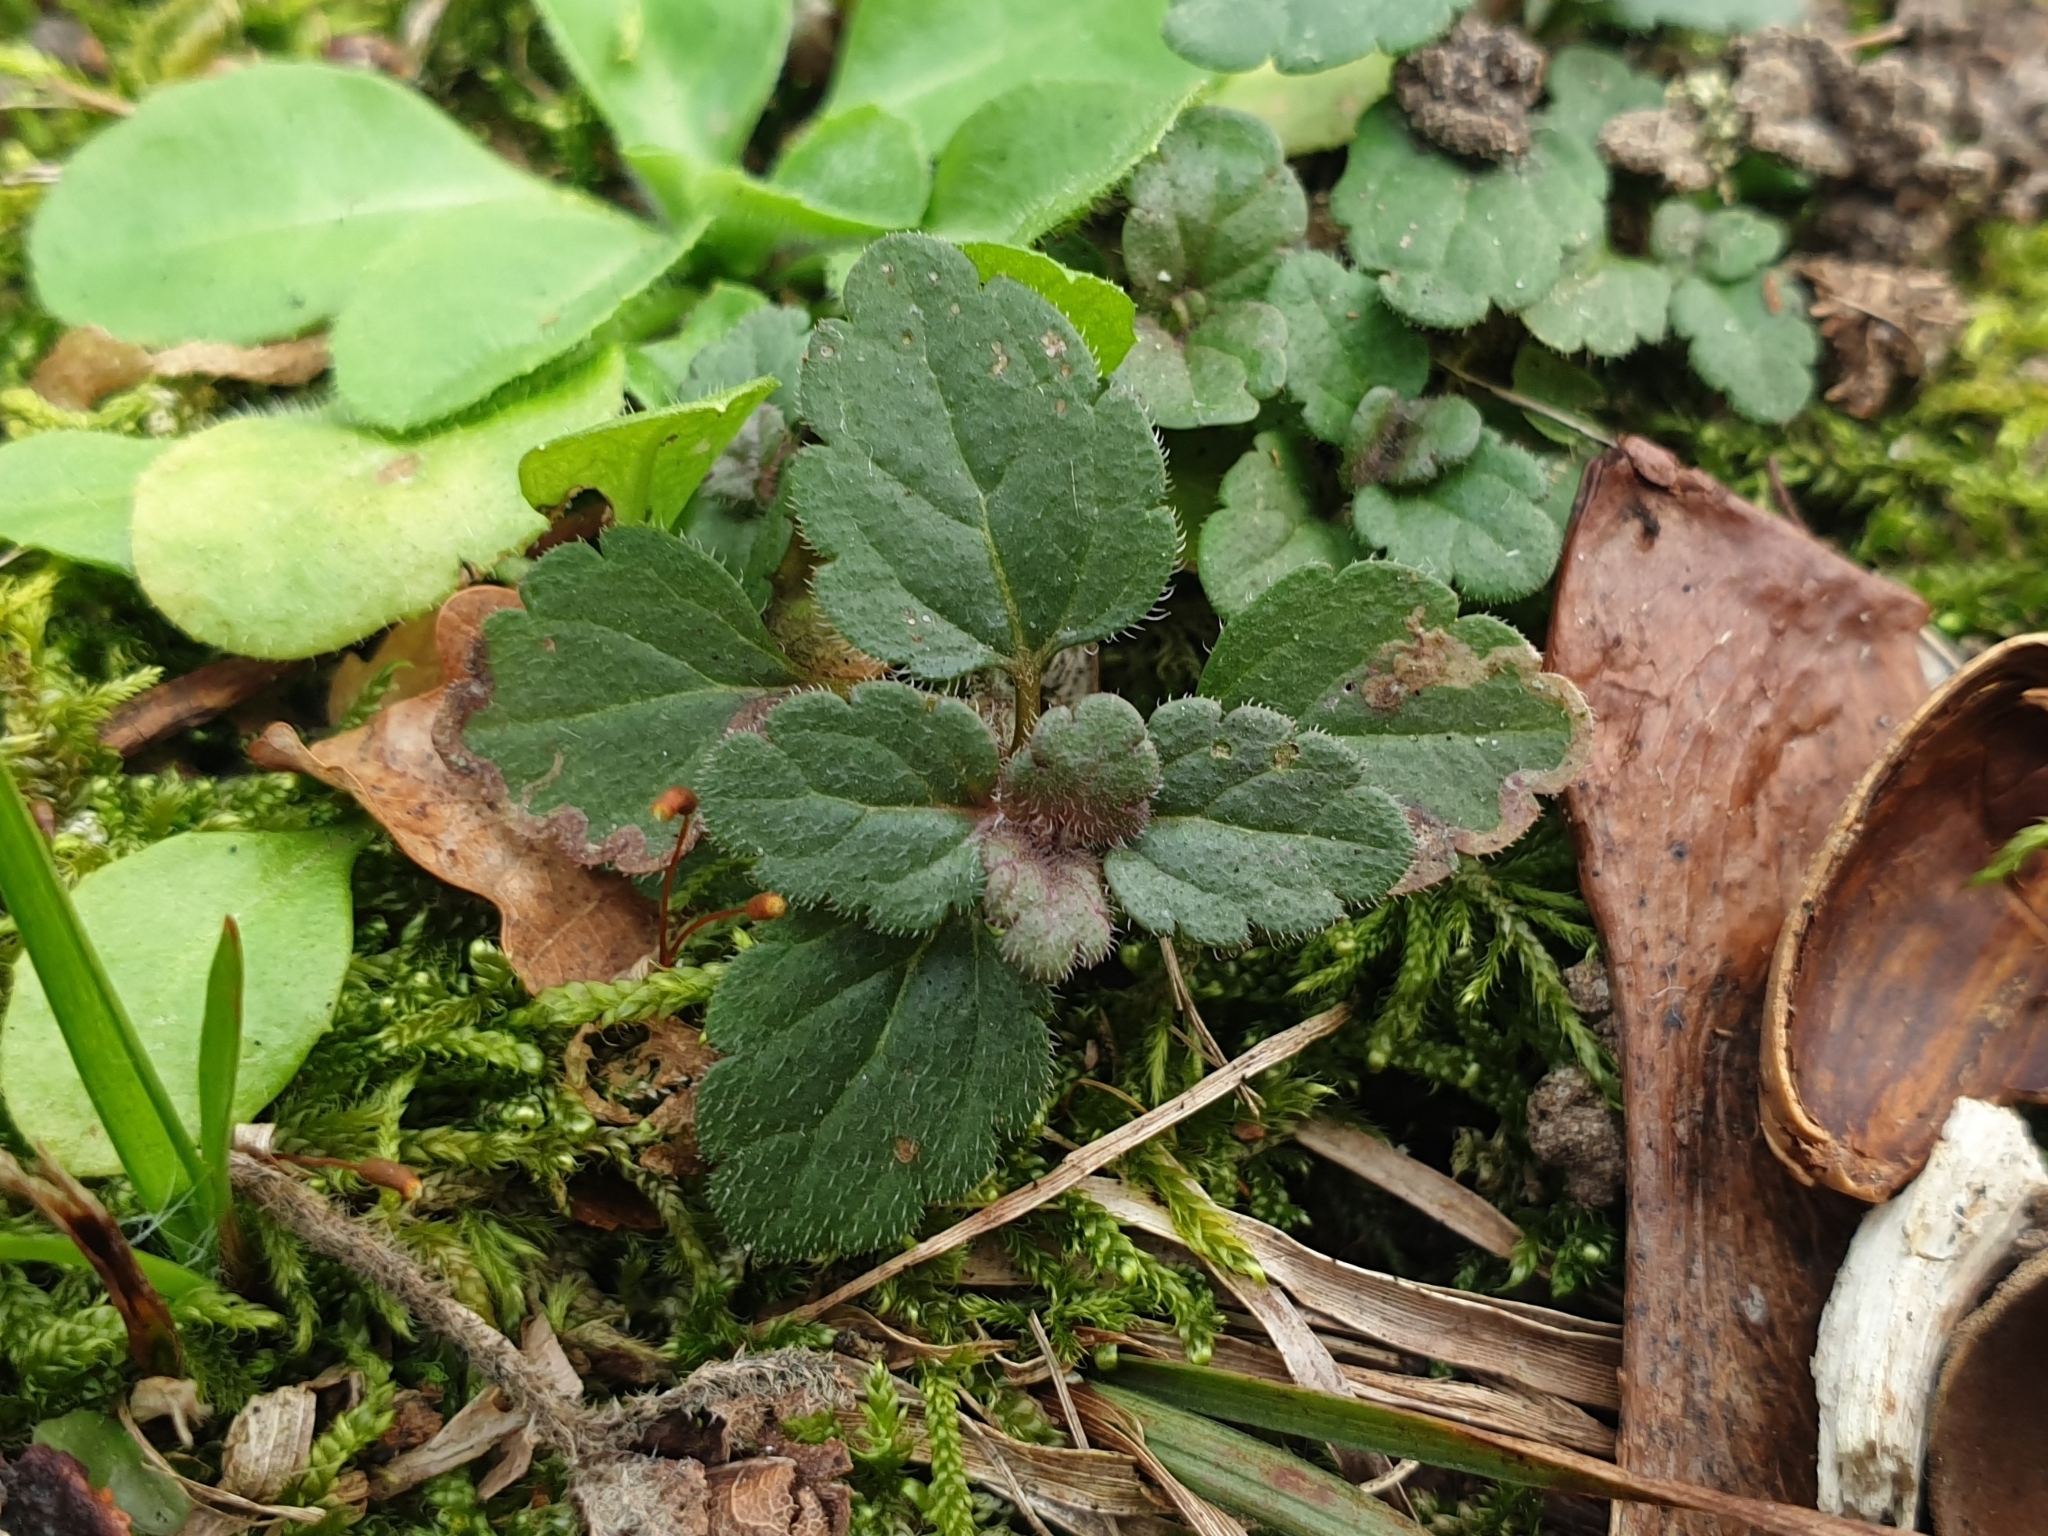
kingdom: Plantae
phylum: Tracheophyta
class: Magnoliopsida
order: Lamiales
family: Plantaginaceae
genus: Veronica
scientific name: Veronica chamaedrys
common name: Germander speedwell
